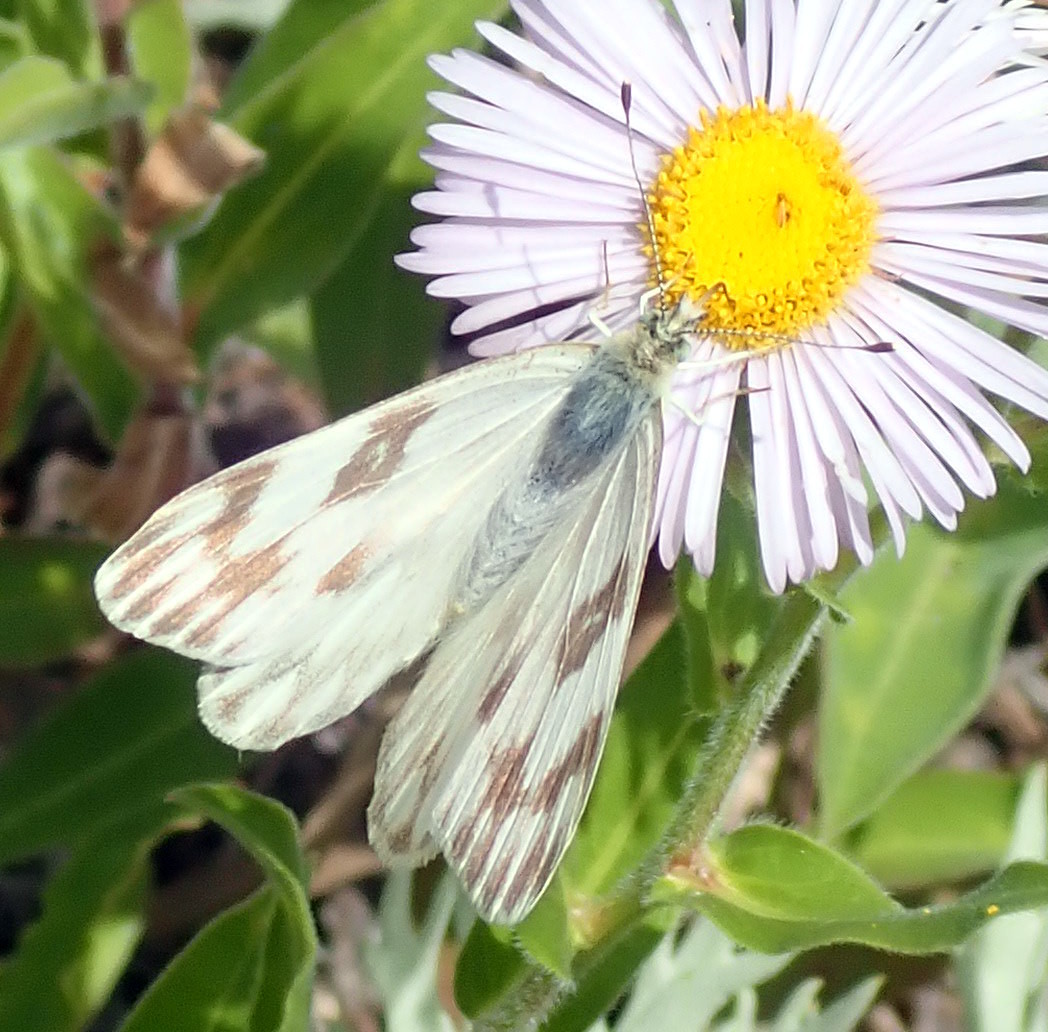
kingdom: Animalia
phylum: Arthropoda
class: Insecta
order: Lepidoptera
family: Pieridae
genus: Pontia
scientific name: Pontia occidentalis
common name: Western white
